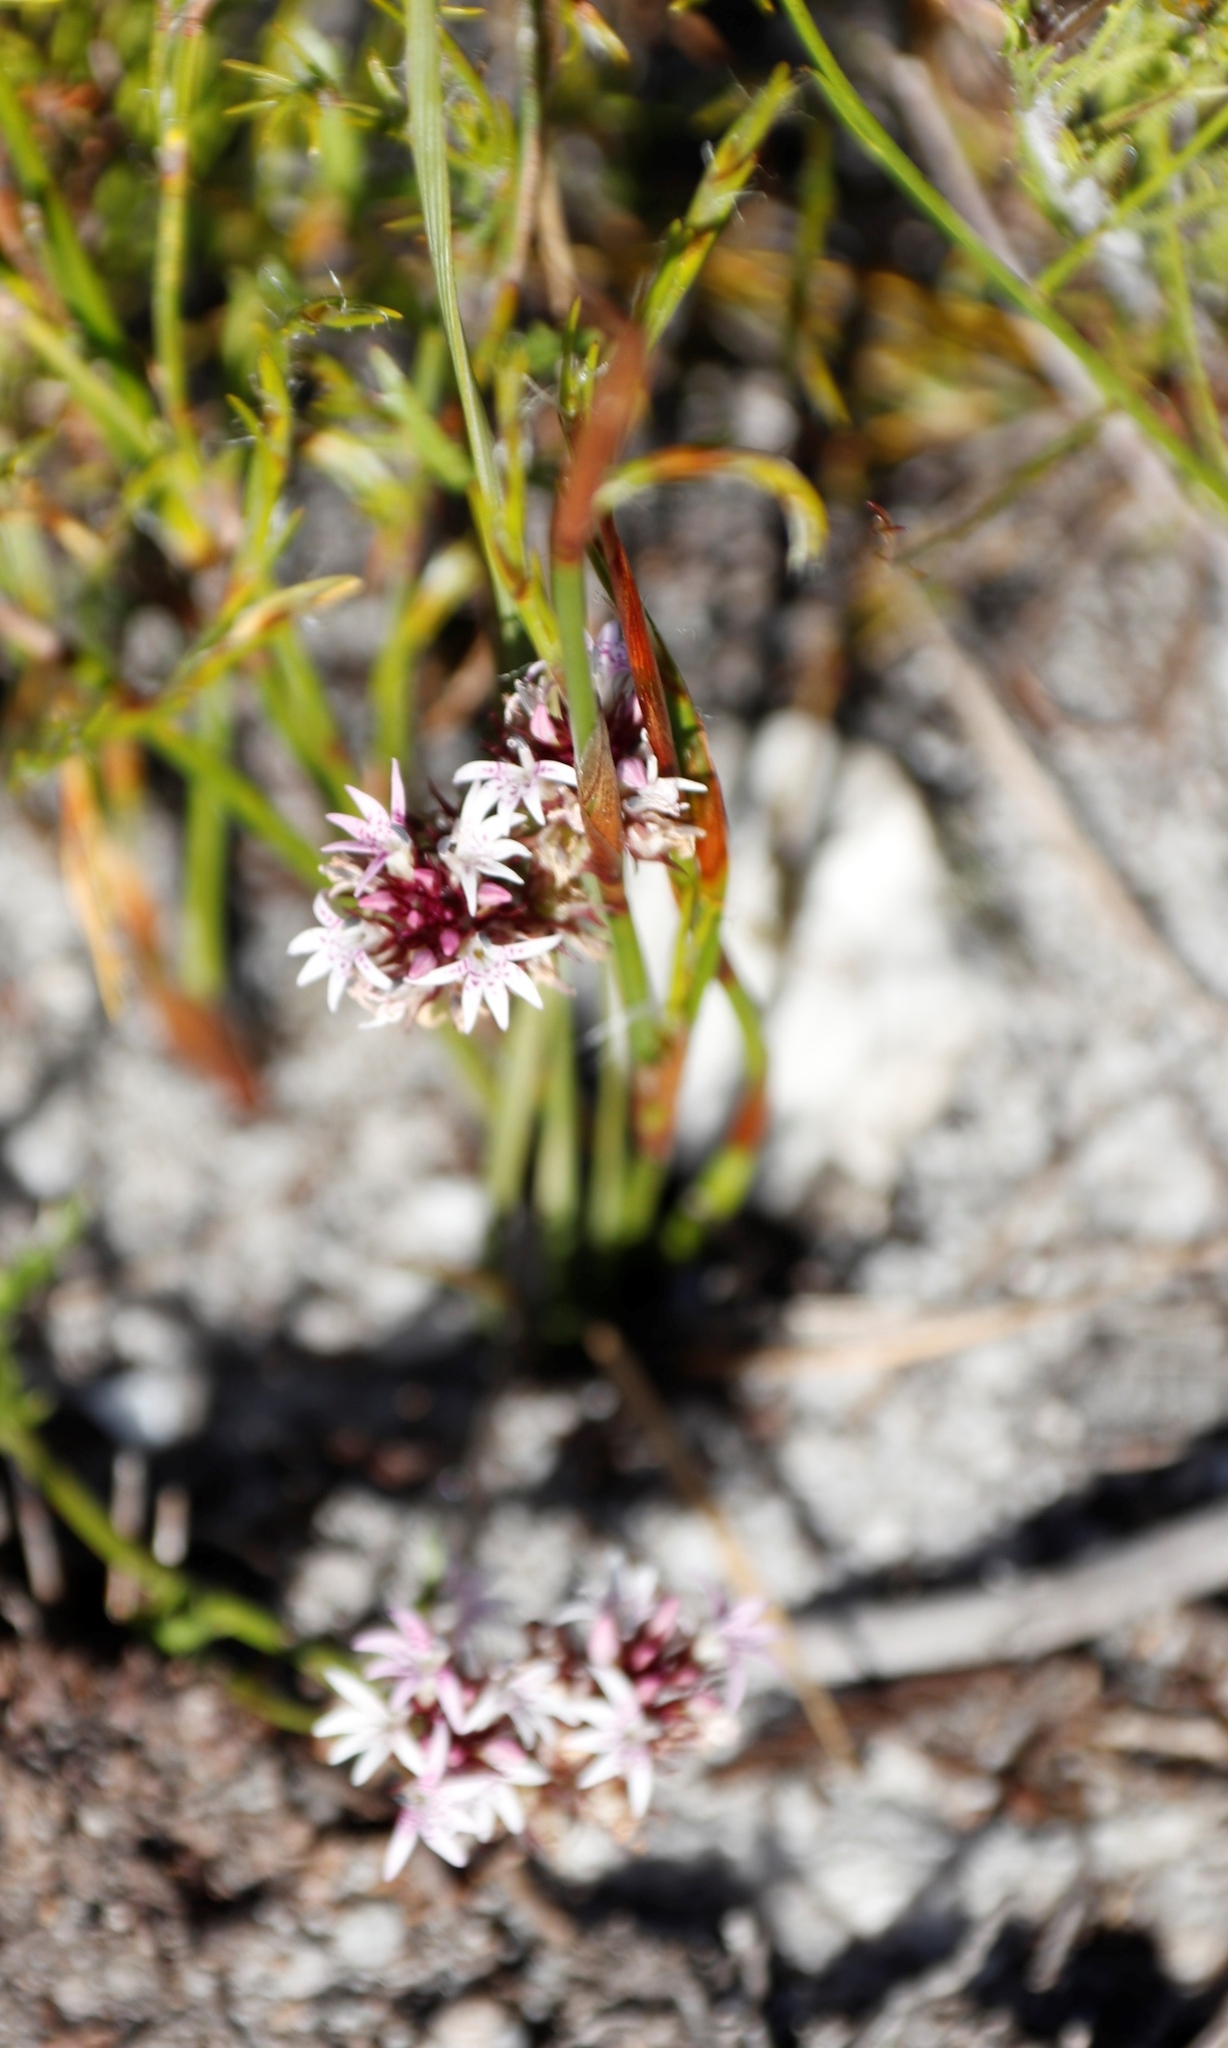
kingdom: Plantae
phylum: Tracheophyta
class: Magnoliopsida
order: Asterales
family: Campanulaceae
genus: Lobelia
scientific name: Lobelia jasionoides
